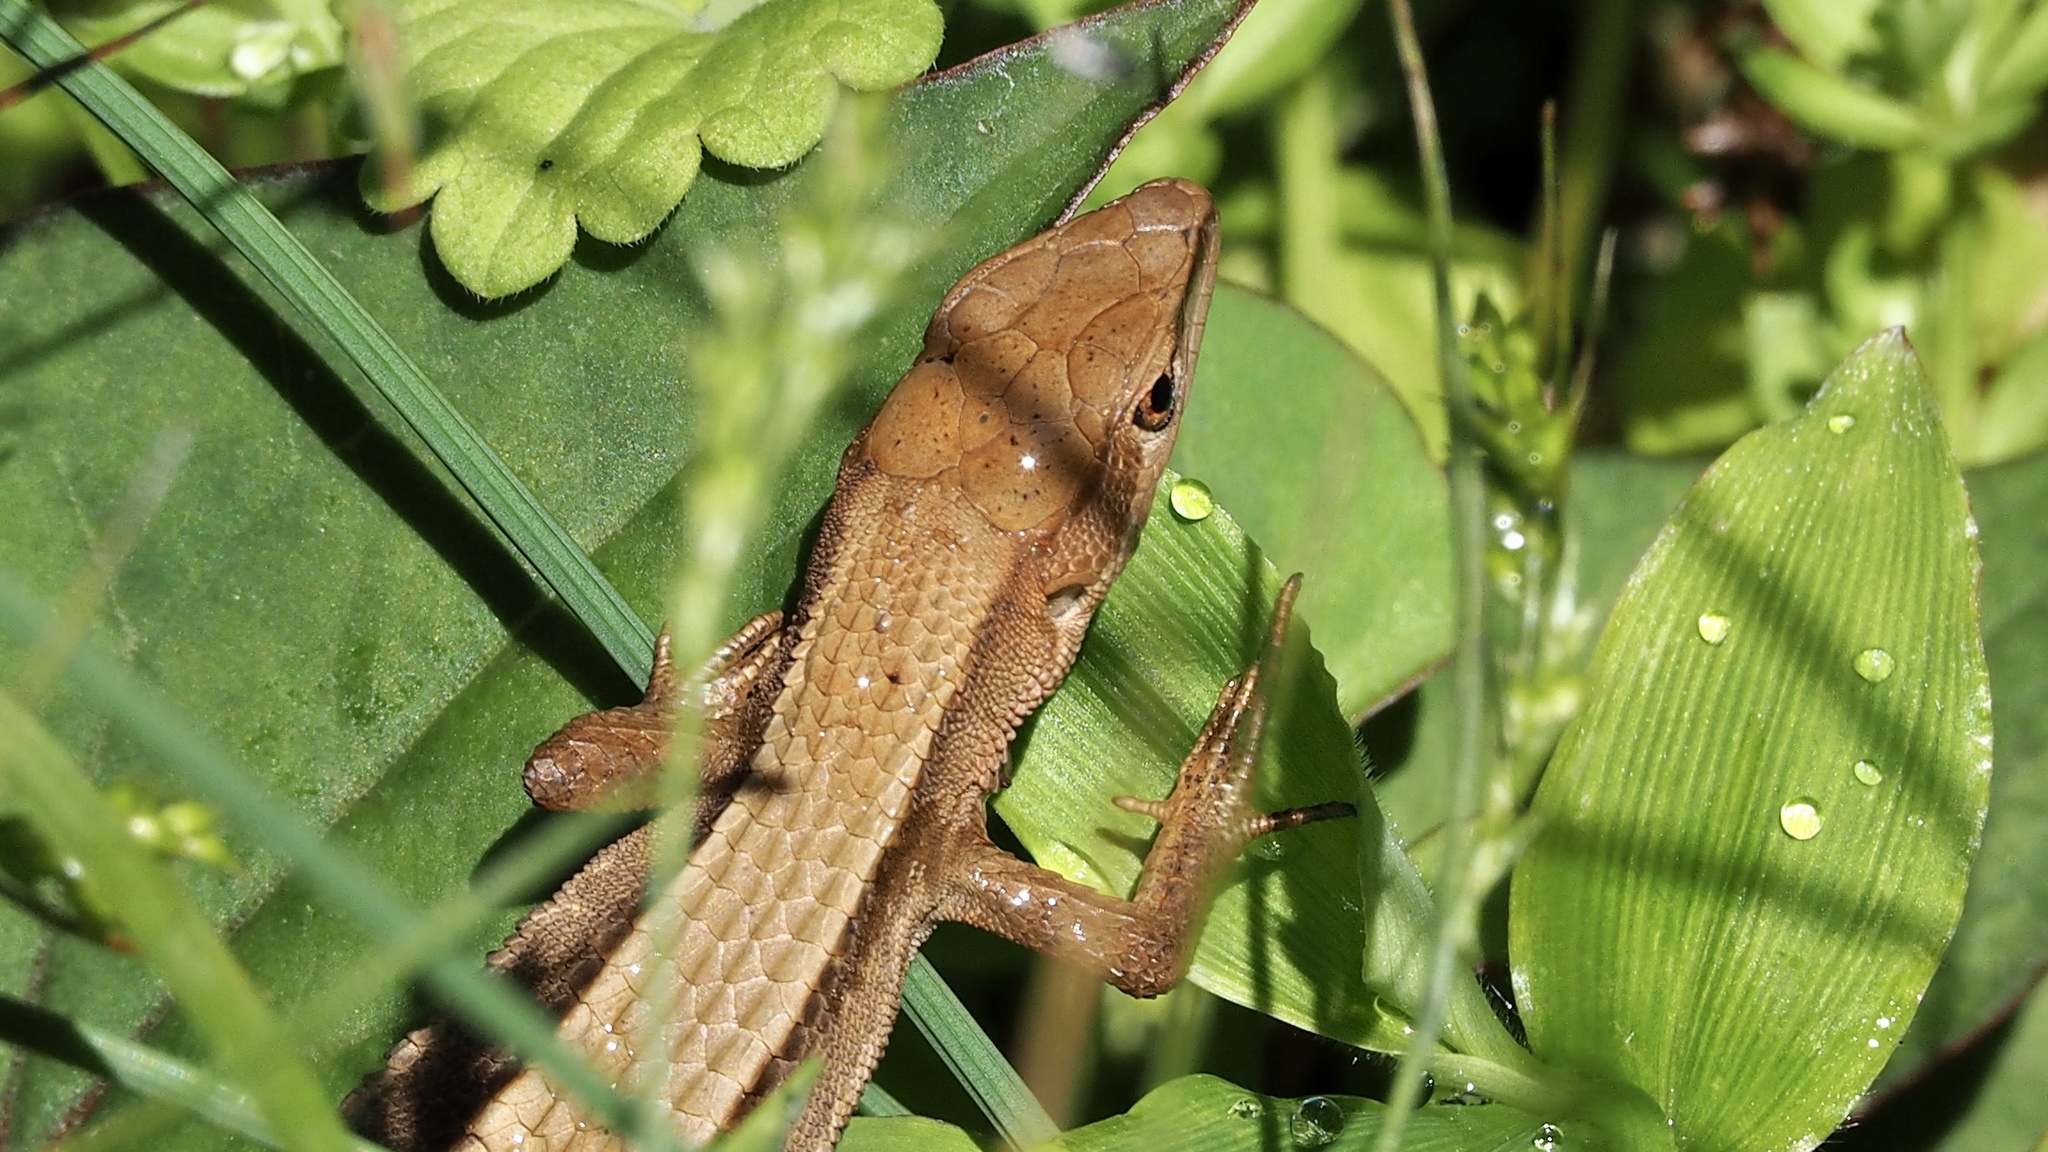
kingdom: Animalia
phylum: Chordata
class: Squamata
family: Lacertidae
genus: Takydromus
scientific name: Takydromus tachydromoides
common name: Japanese grass lizard
